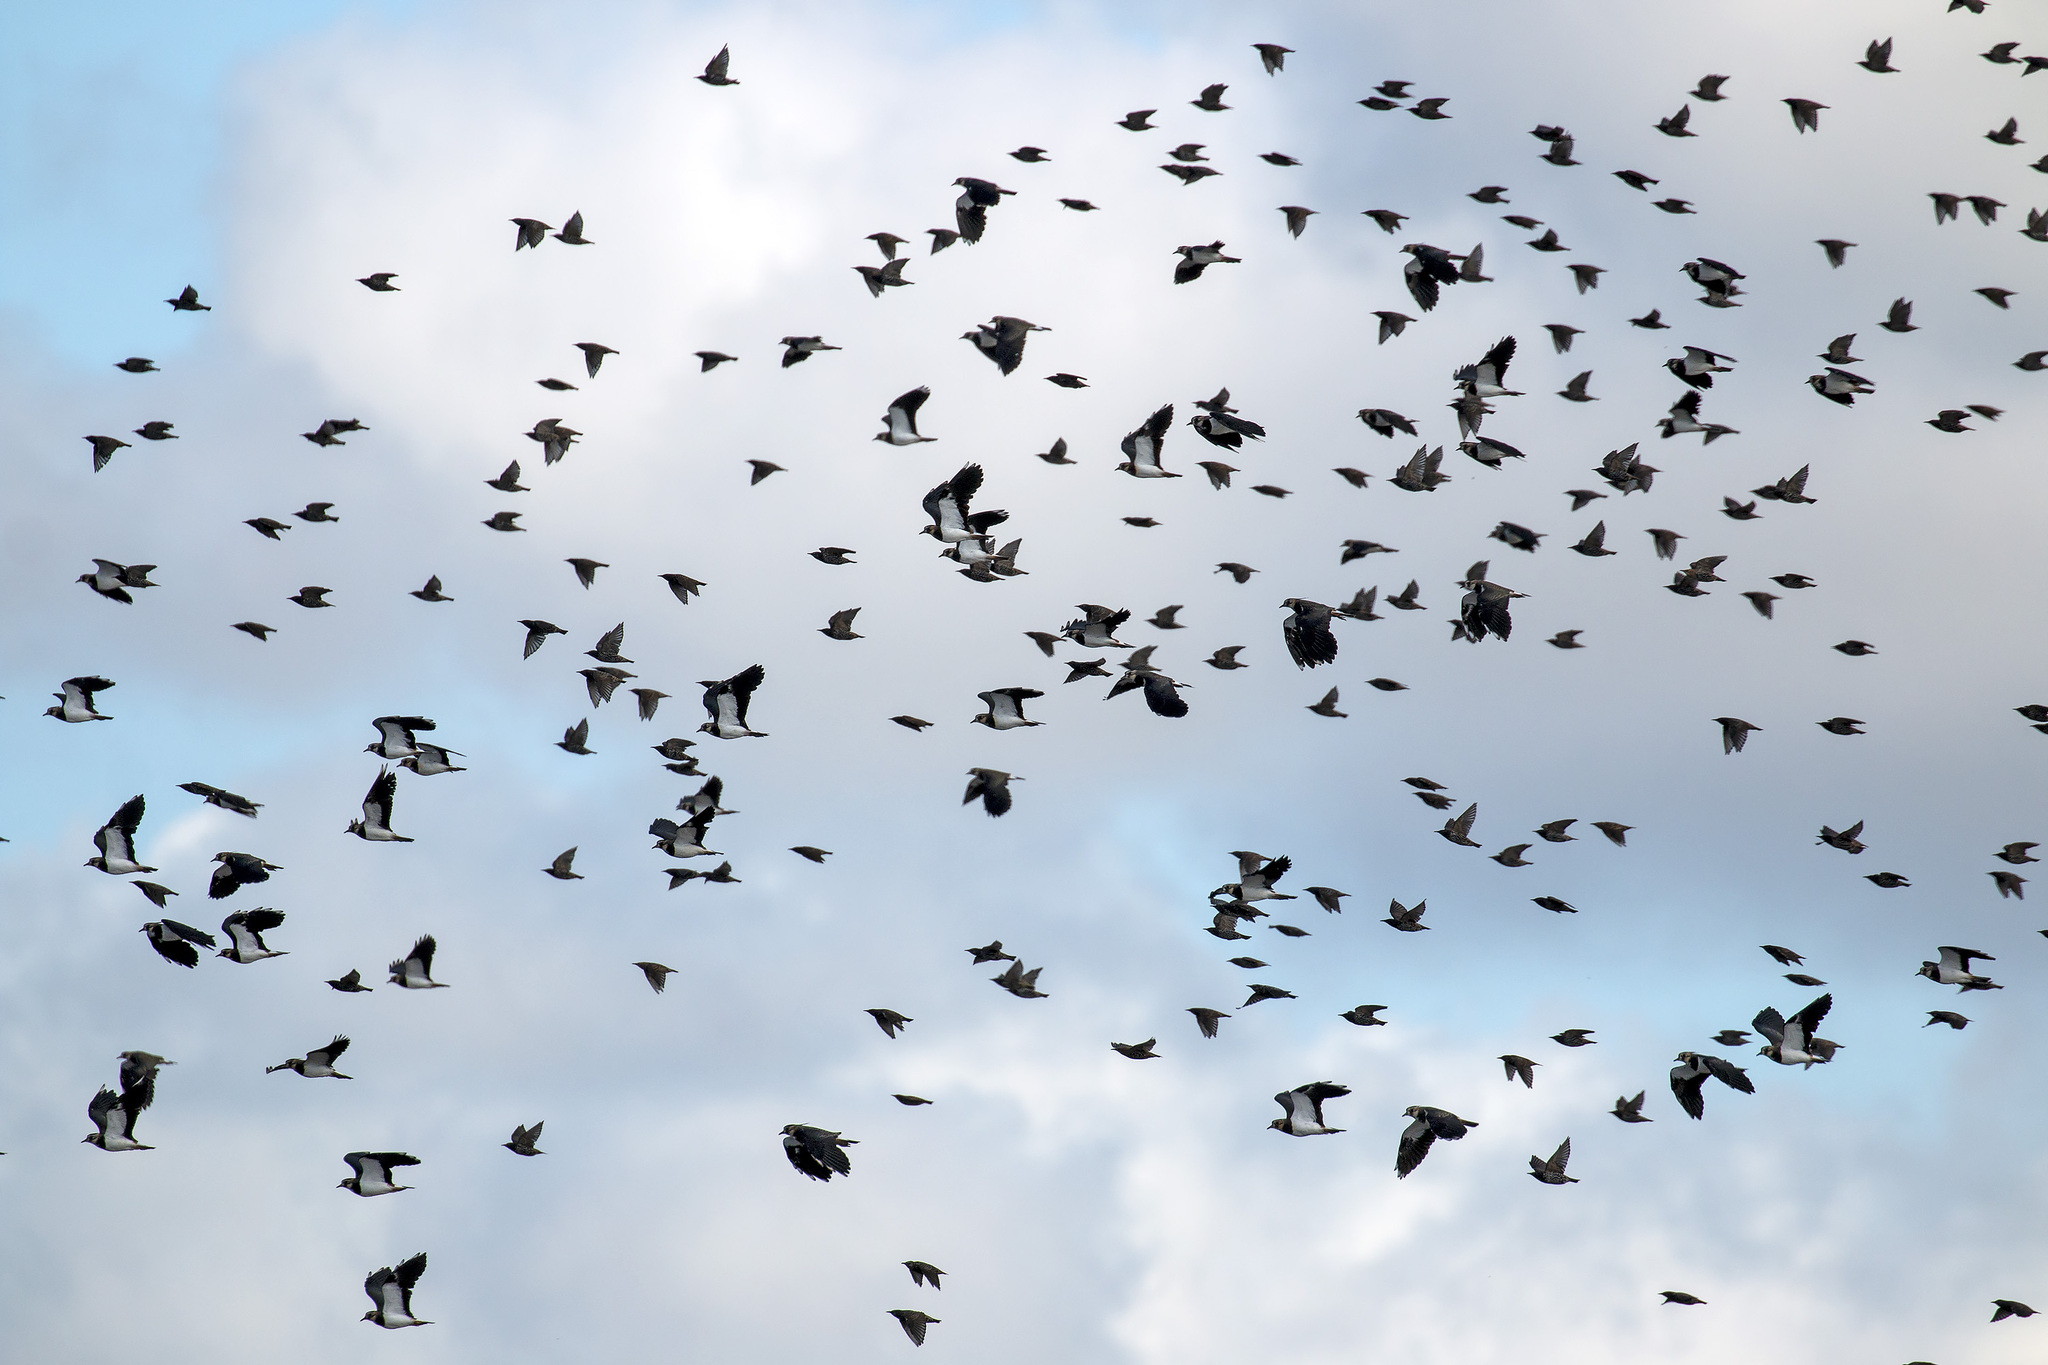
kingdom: Animalia
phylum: Chordata
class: Aves
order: Charadriiformes
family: Charadriidae
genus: Vanellus
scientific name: Vanellus vanellus
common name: Northern lapwing
